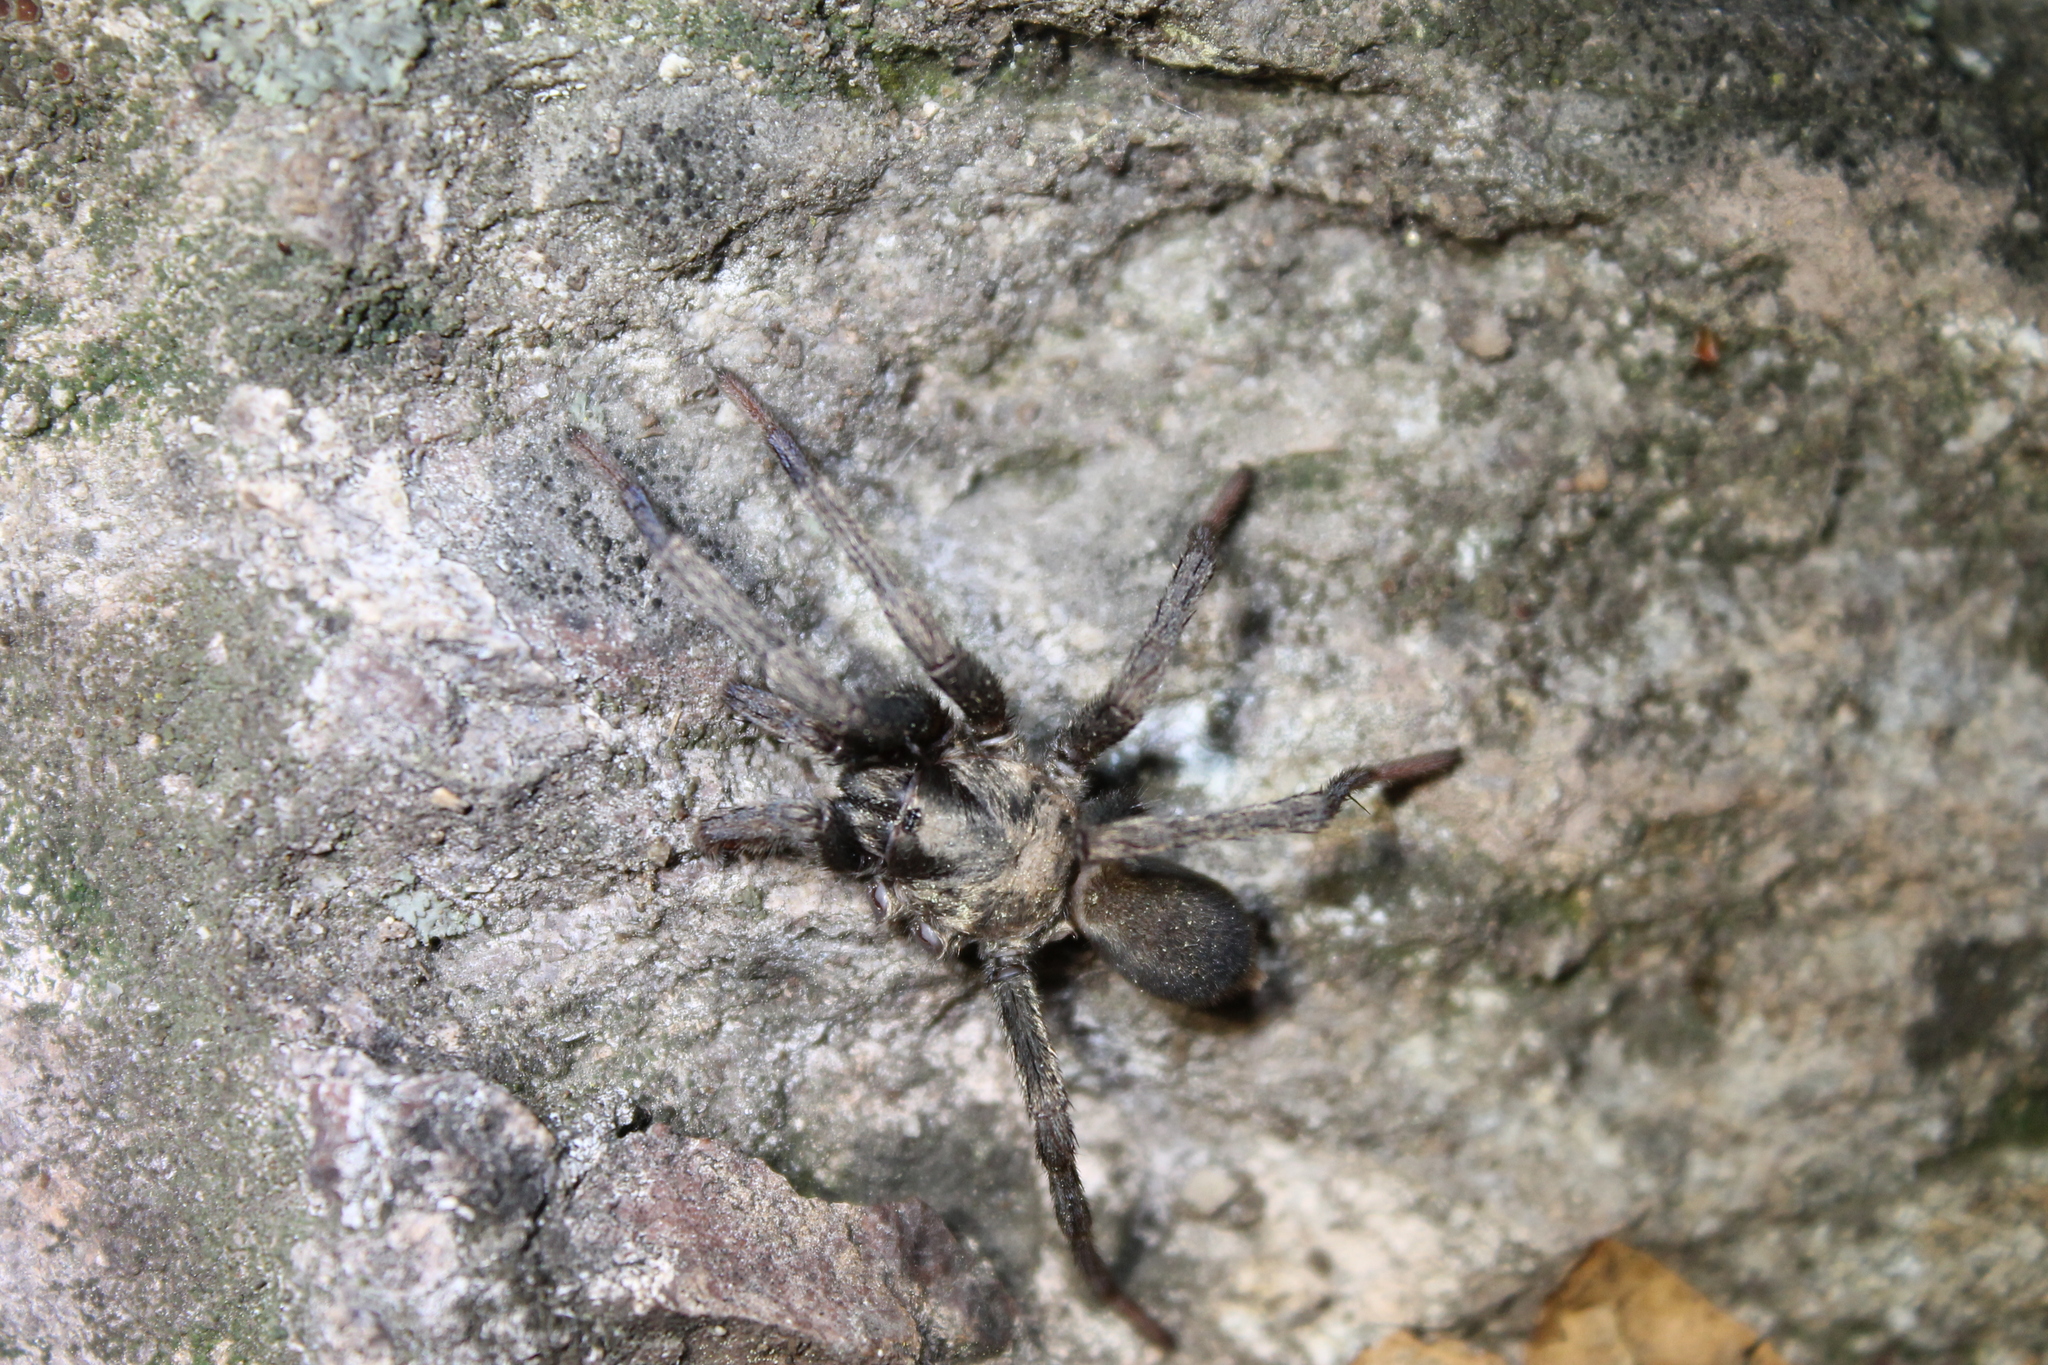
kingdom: Animalia
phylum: Arthropoda
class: Arachnida
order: Araneae
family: Nemesiidae
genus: Calisoga
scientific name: Calisoga longitarsis
